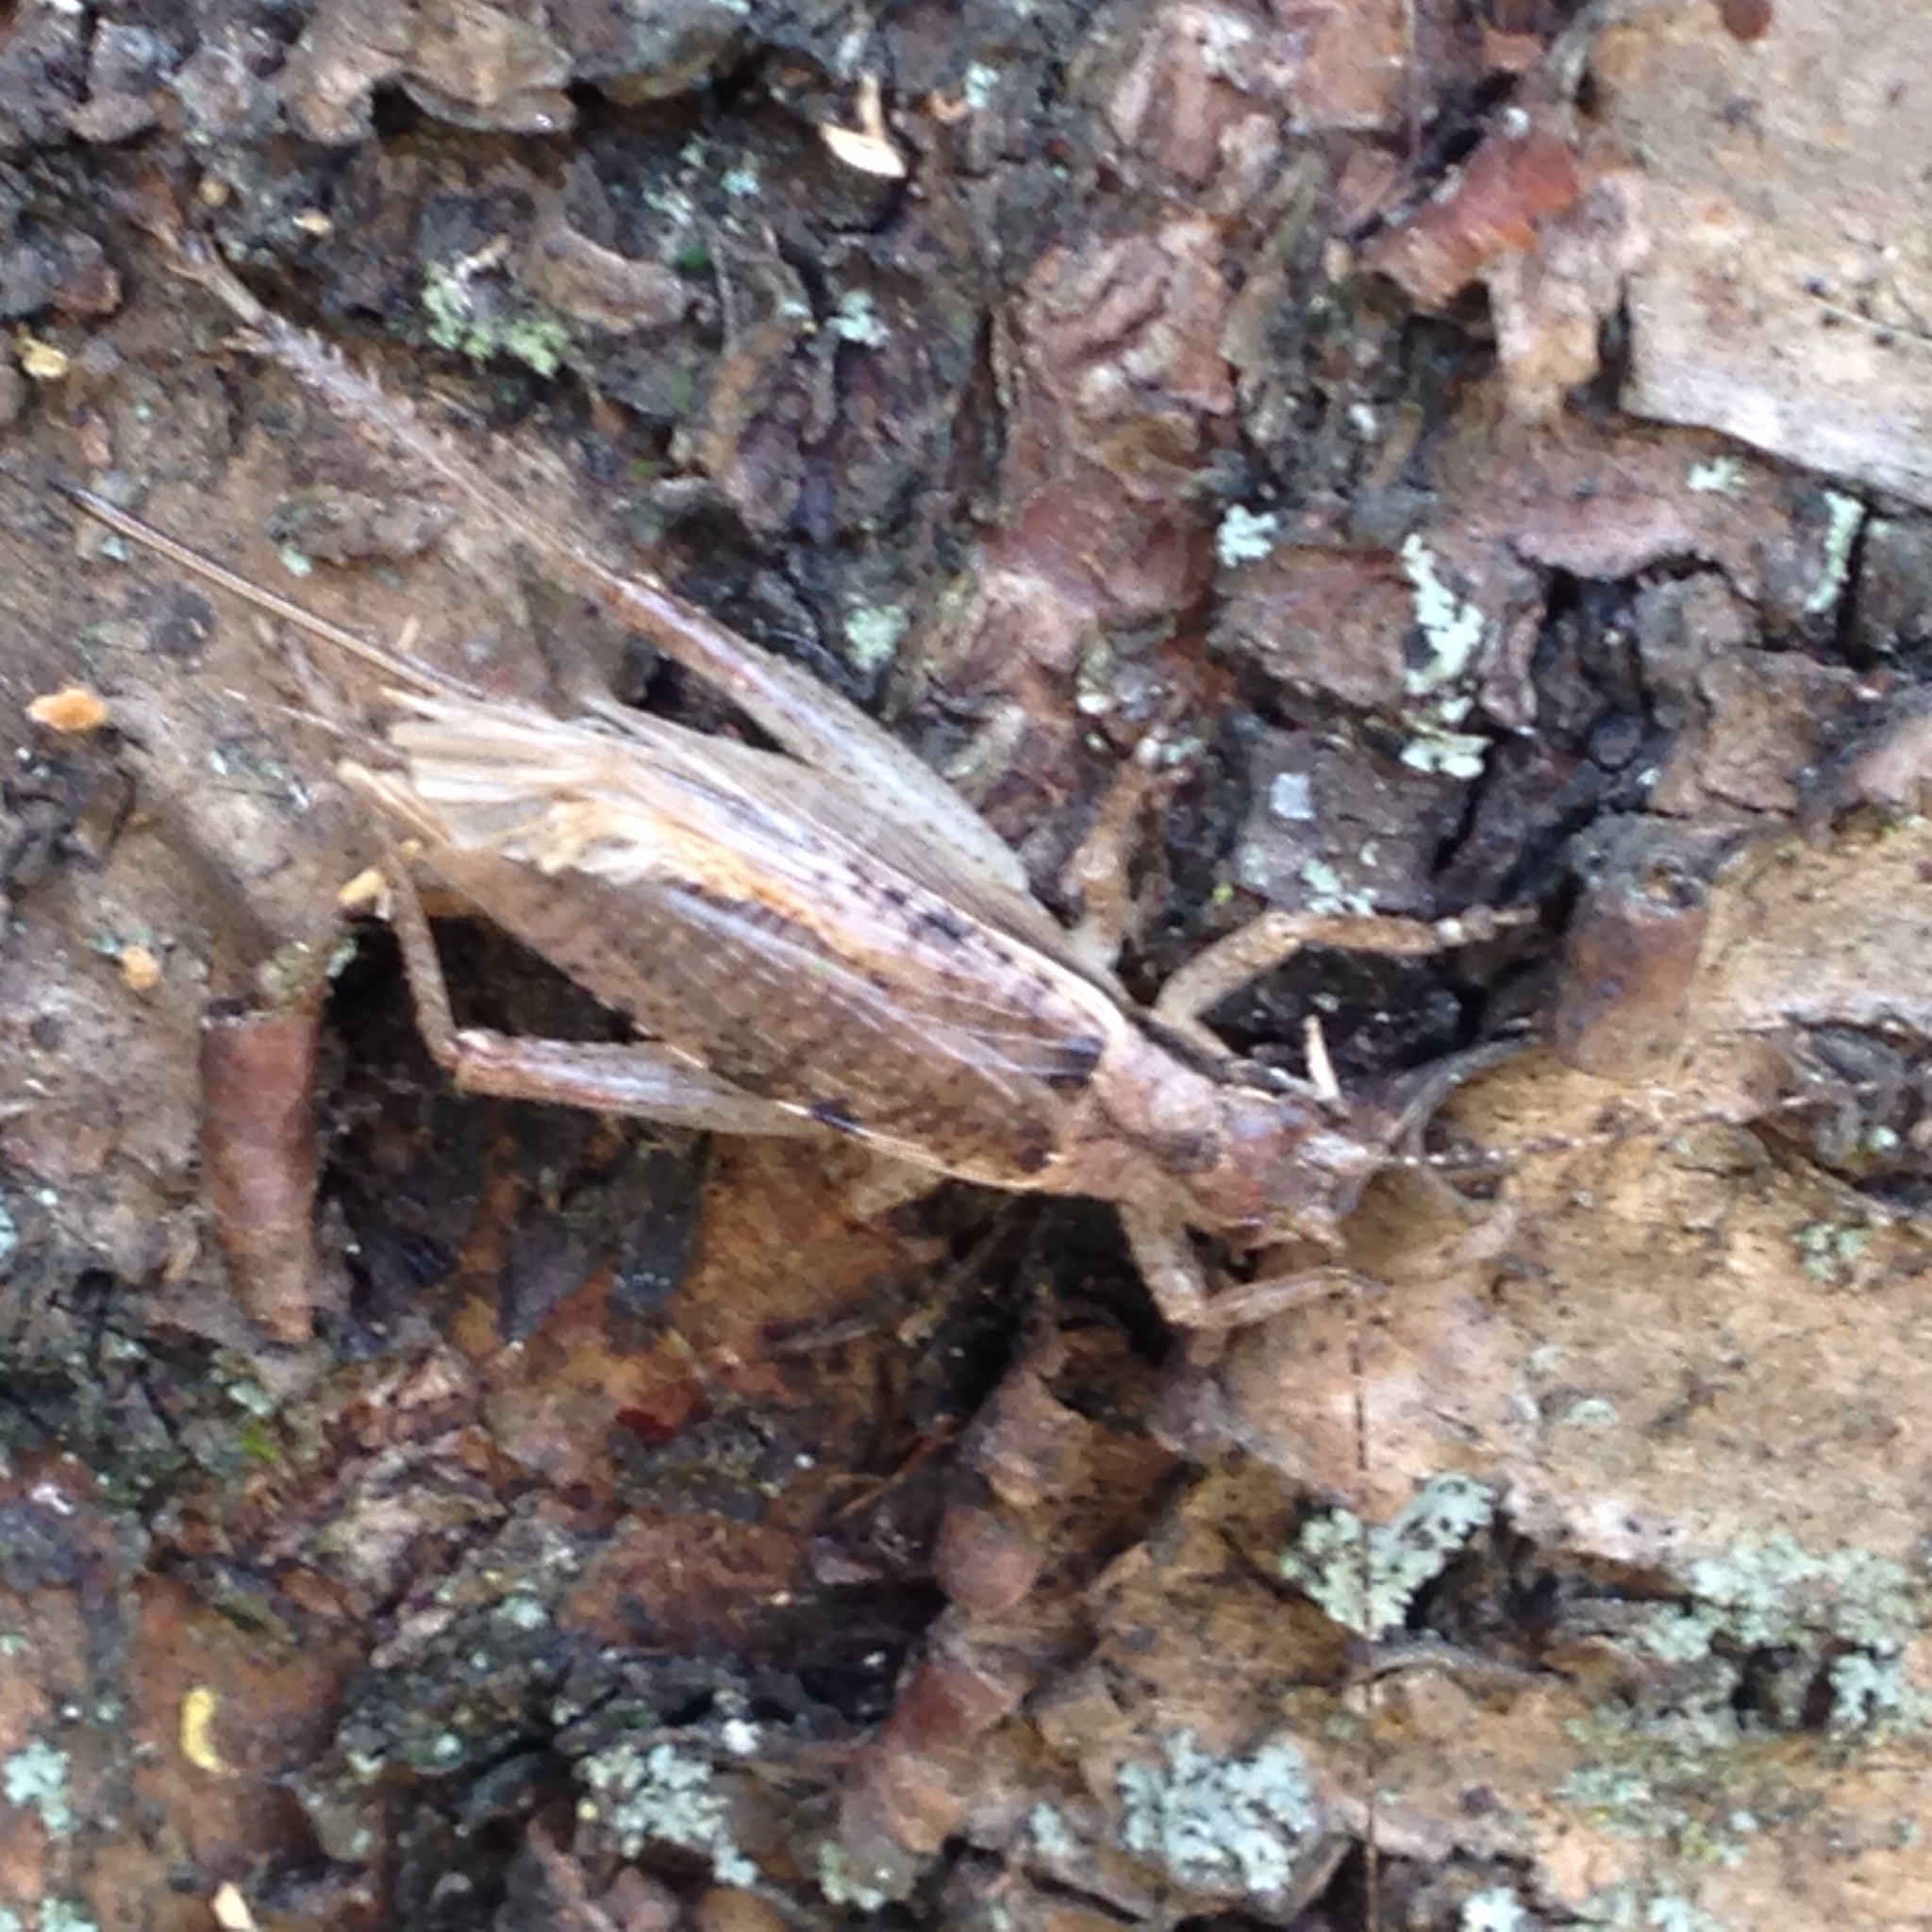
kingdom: Animalia
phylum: Arthropoda
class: Insecta
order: Orthoptera
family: Gryllidae
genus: Hapithus
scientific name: Hapithus saltator
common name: Jumping bush cricket
